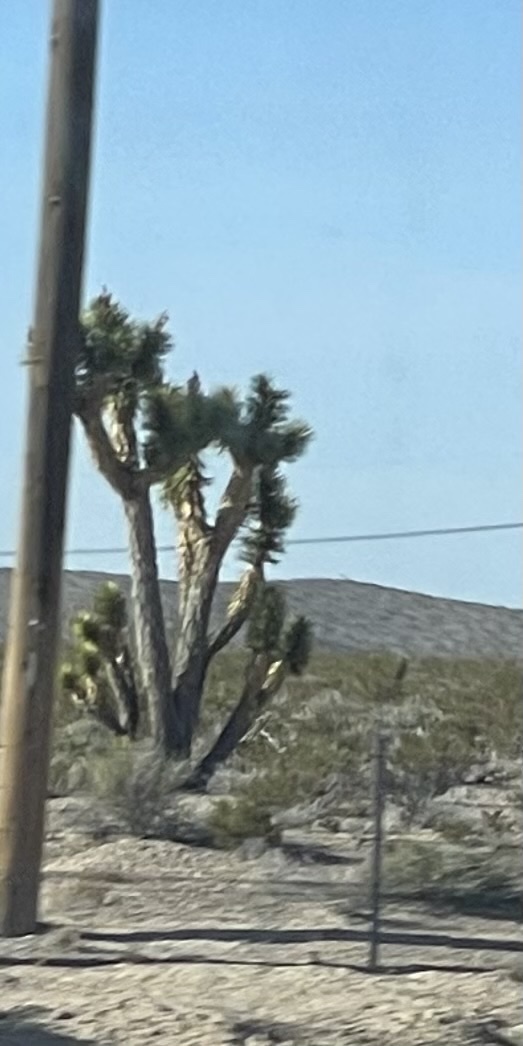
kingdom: Plantae
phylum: Tracheophyta
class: Liliopsida
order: Asparagales
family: Asparagaceae
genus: Yucca
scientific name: Yucca brevifolia
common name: Joshua tree
